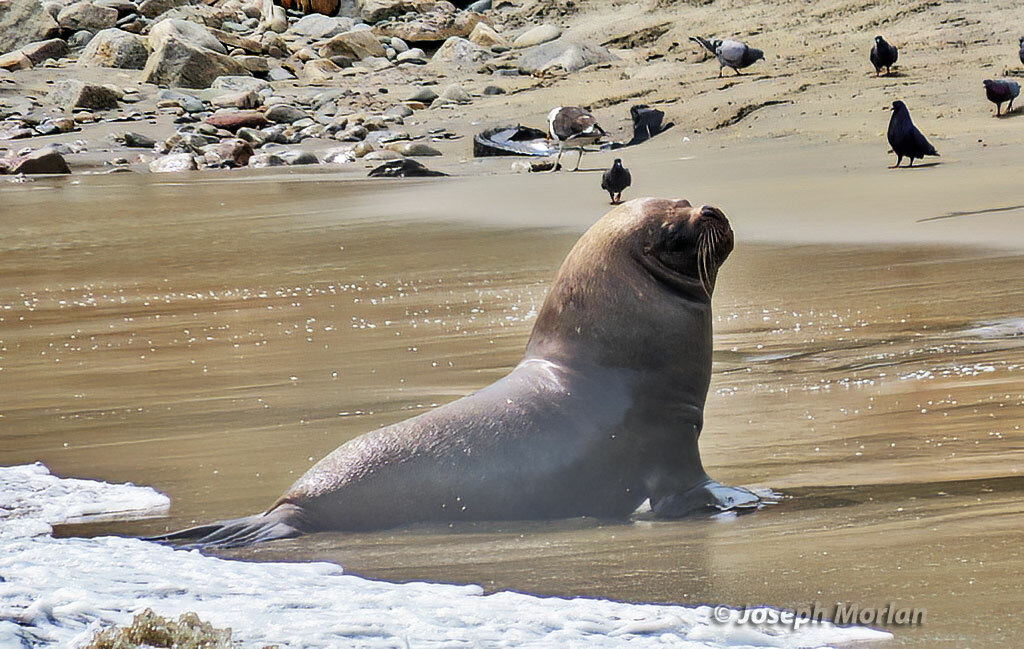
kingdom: Animalia
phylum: Chordata
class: Mammalia
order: Carnivora
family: Otariidae
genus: Otaria
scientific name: Otaria byronia
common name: South american sea lion
